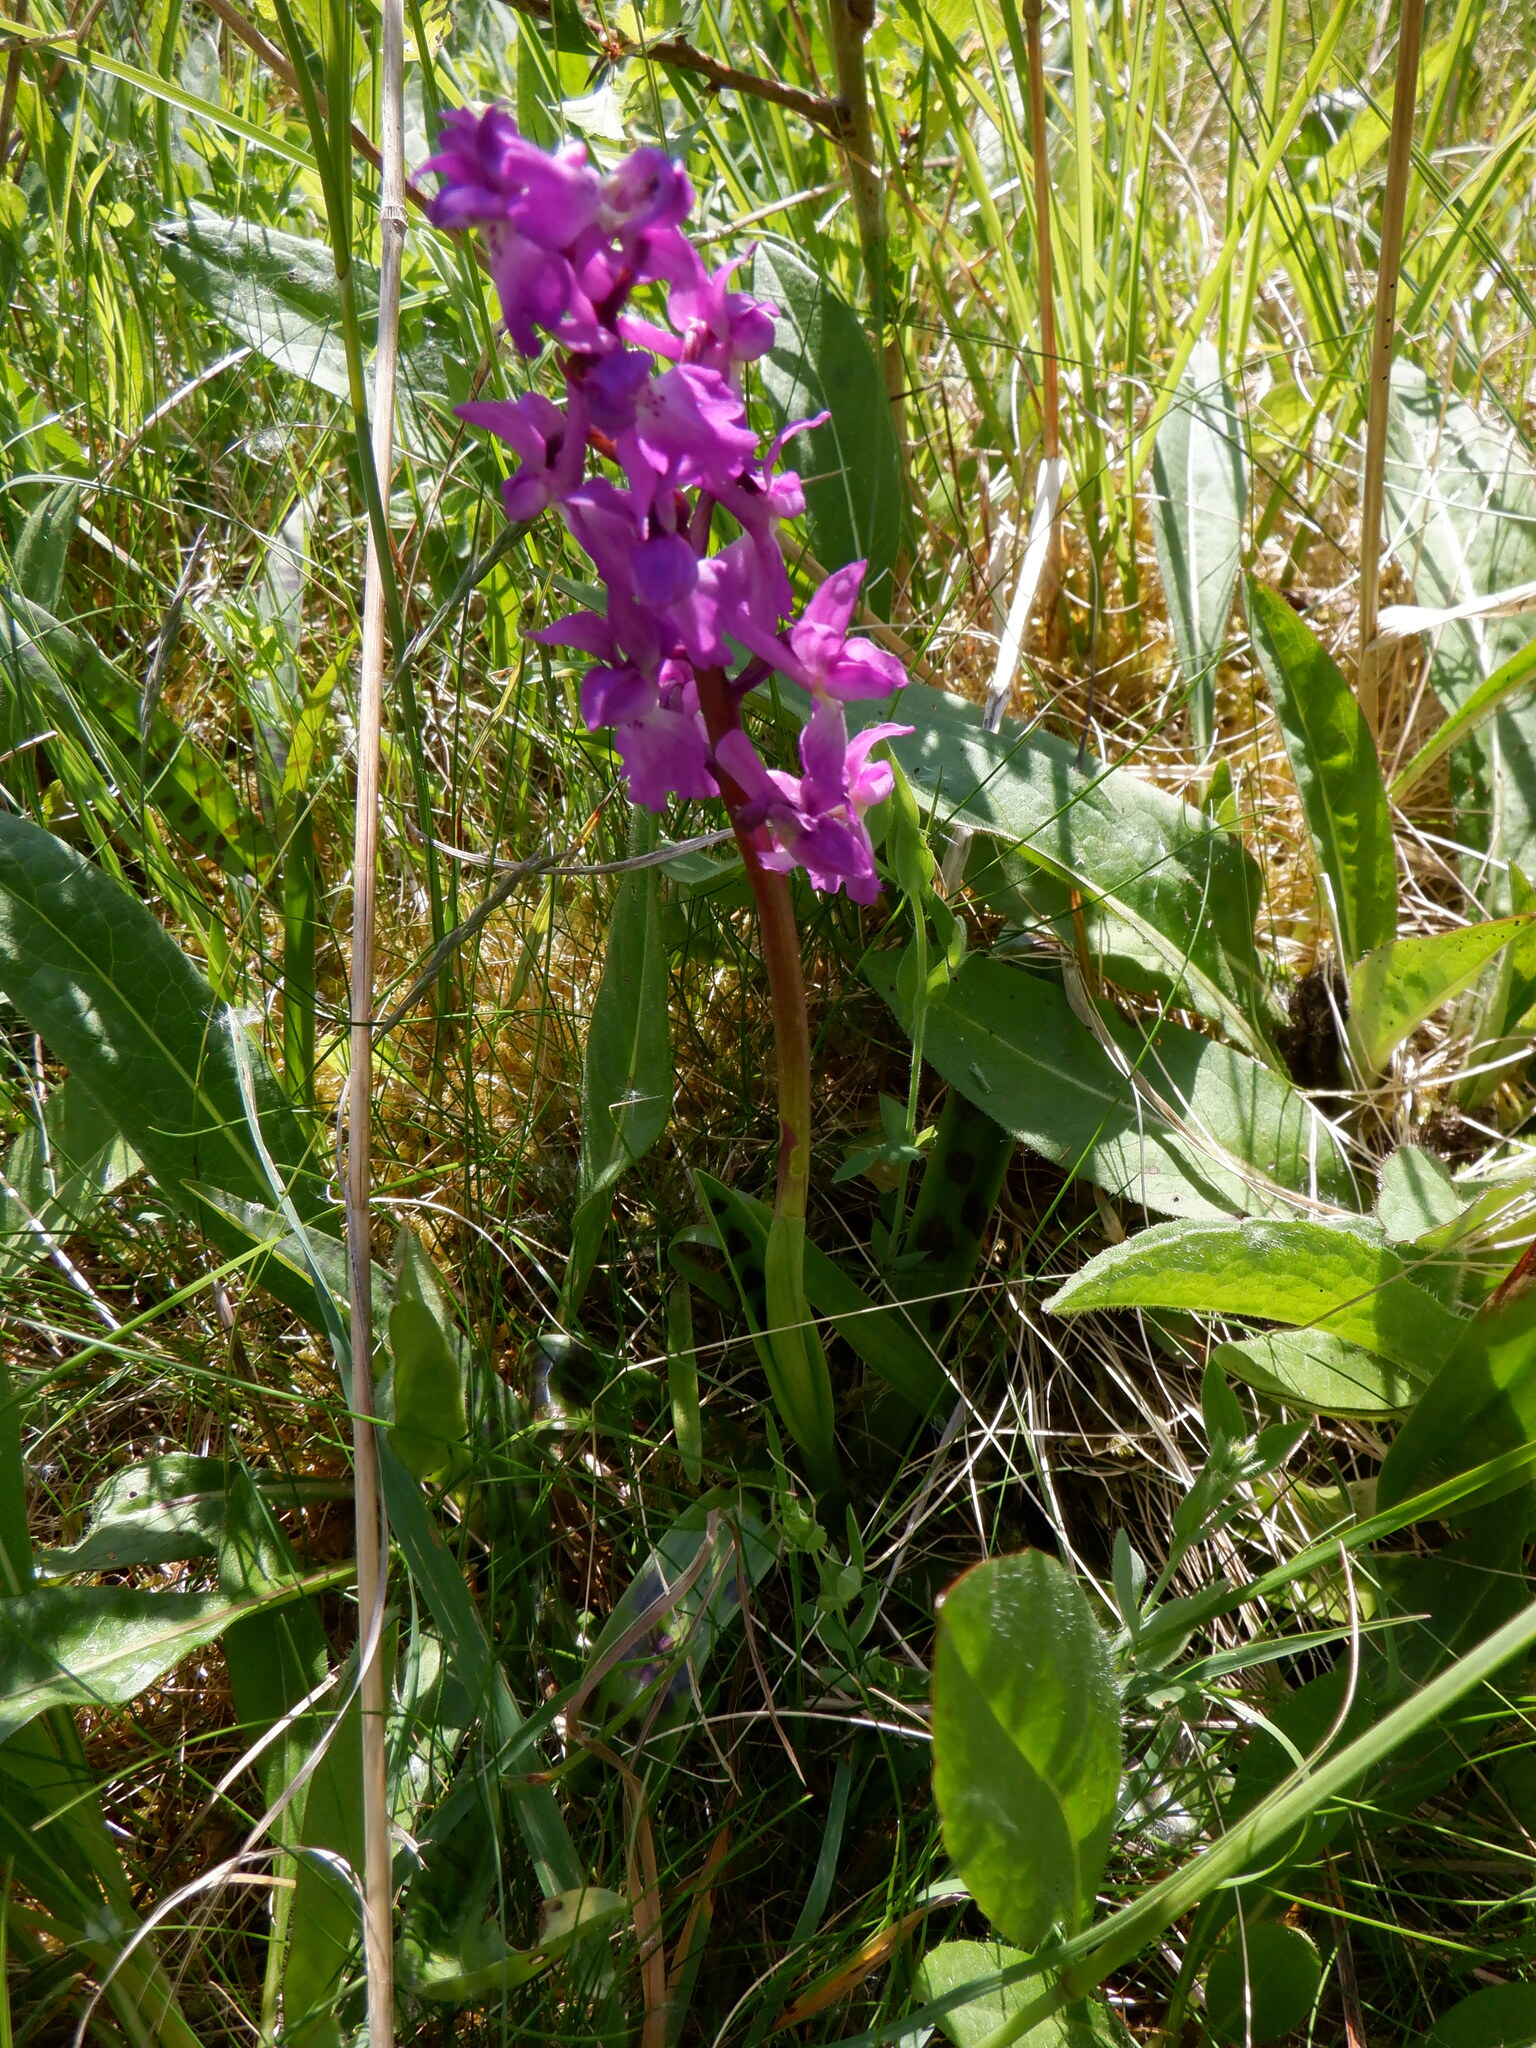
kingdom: Plantae
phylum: Tracheophyta
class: Liliopsida
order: Asparagales
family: Orchidaceae
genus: Orchis
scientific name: Orchis mascula
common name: Early-purple orchid
